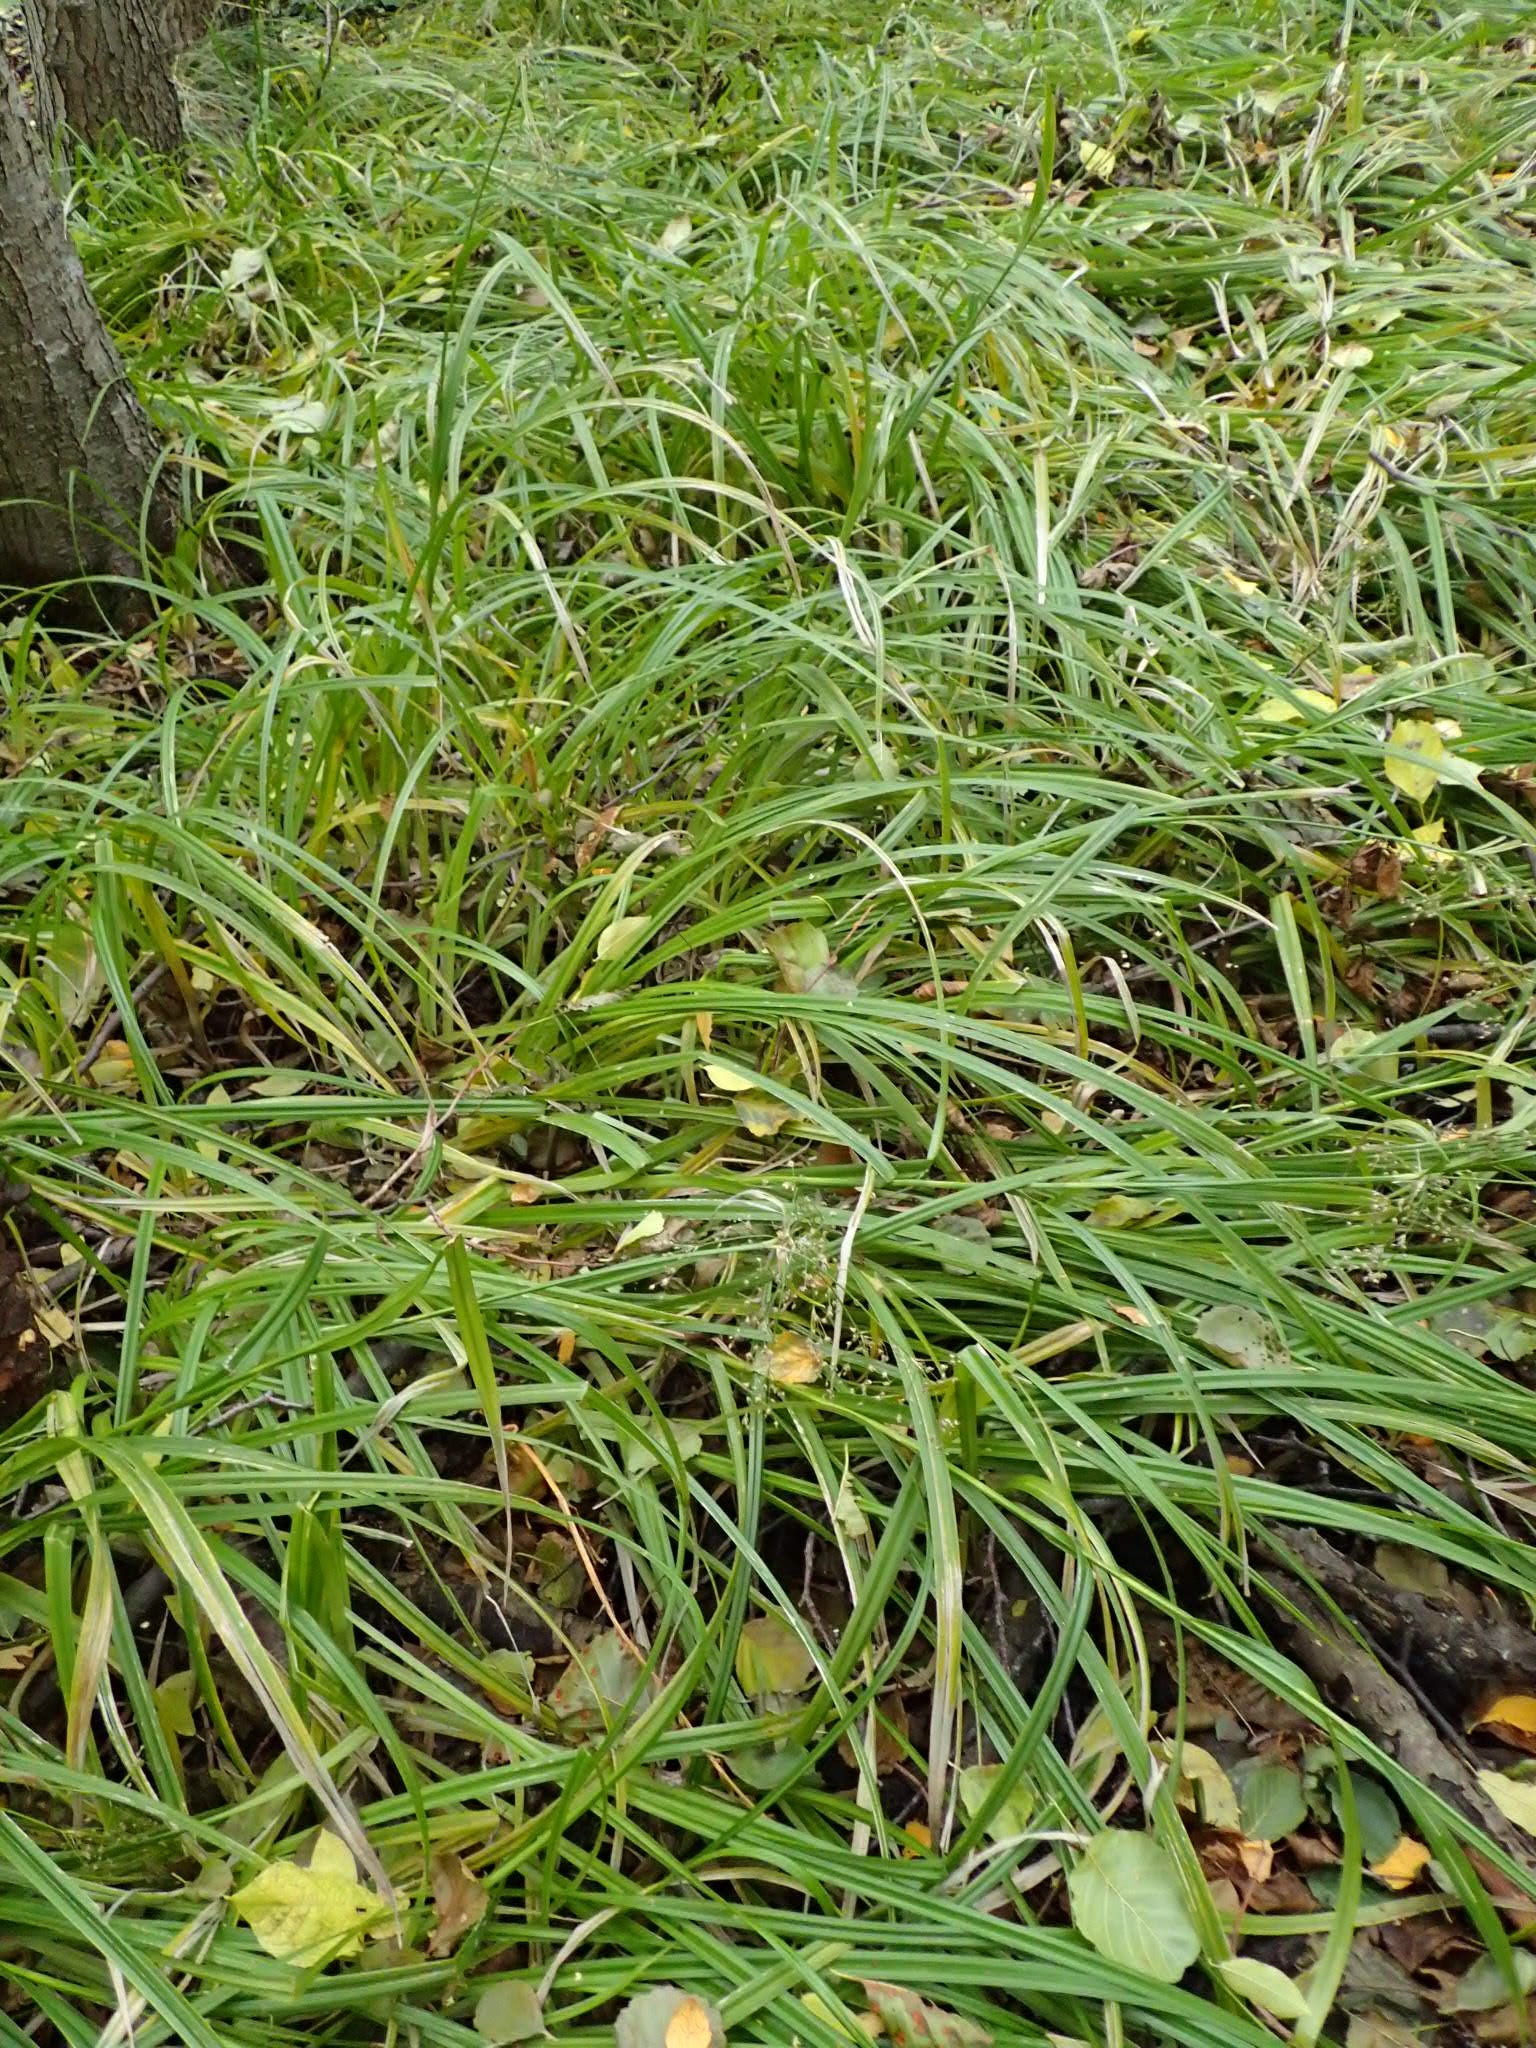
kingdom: Plantae
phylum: Tracheophyta
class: Liliopsida
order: Poales
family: Cyperaceae
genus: Scirpus
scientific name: Scirpus sylvaticus
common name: Wood club-rush
